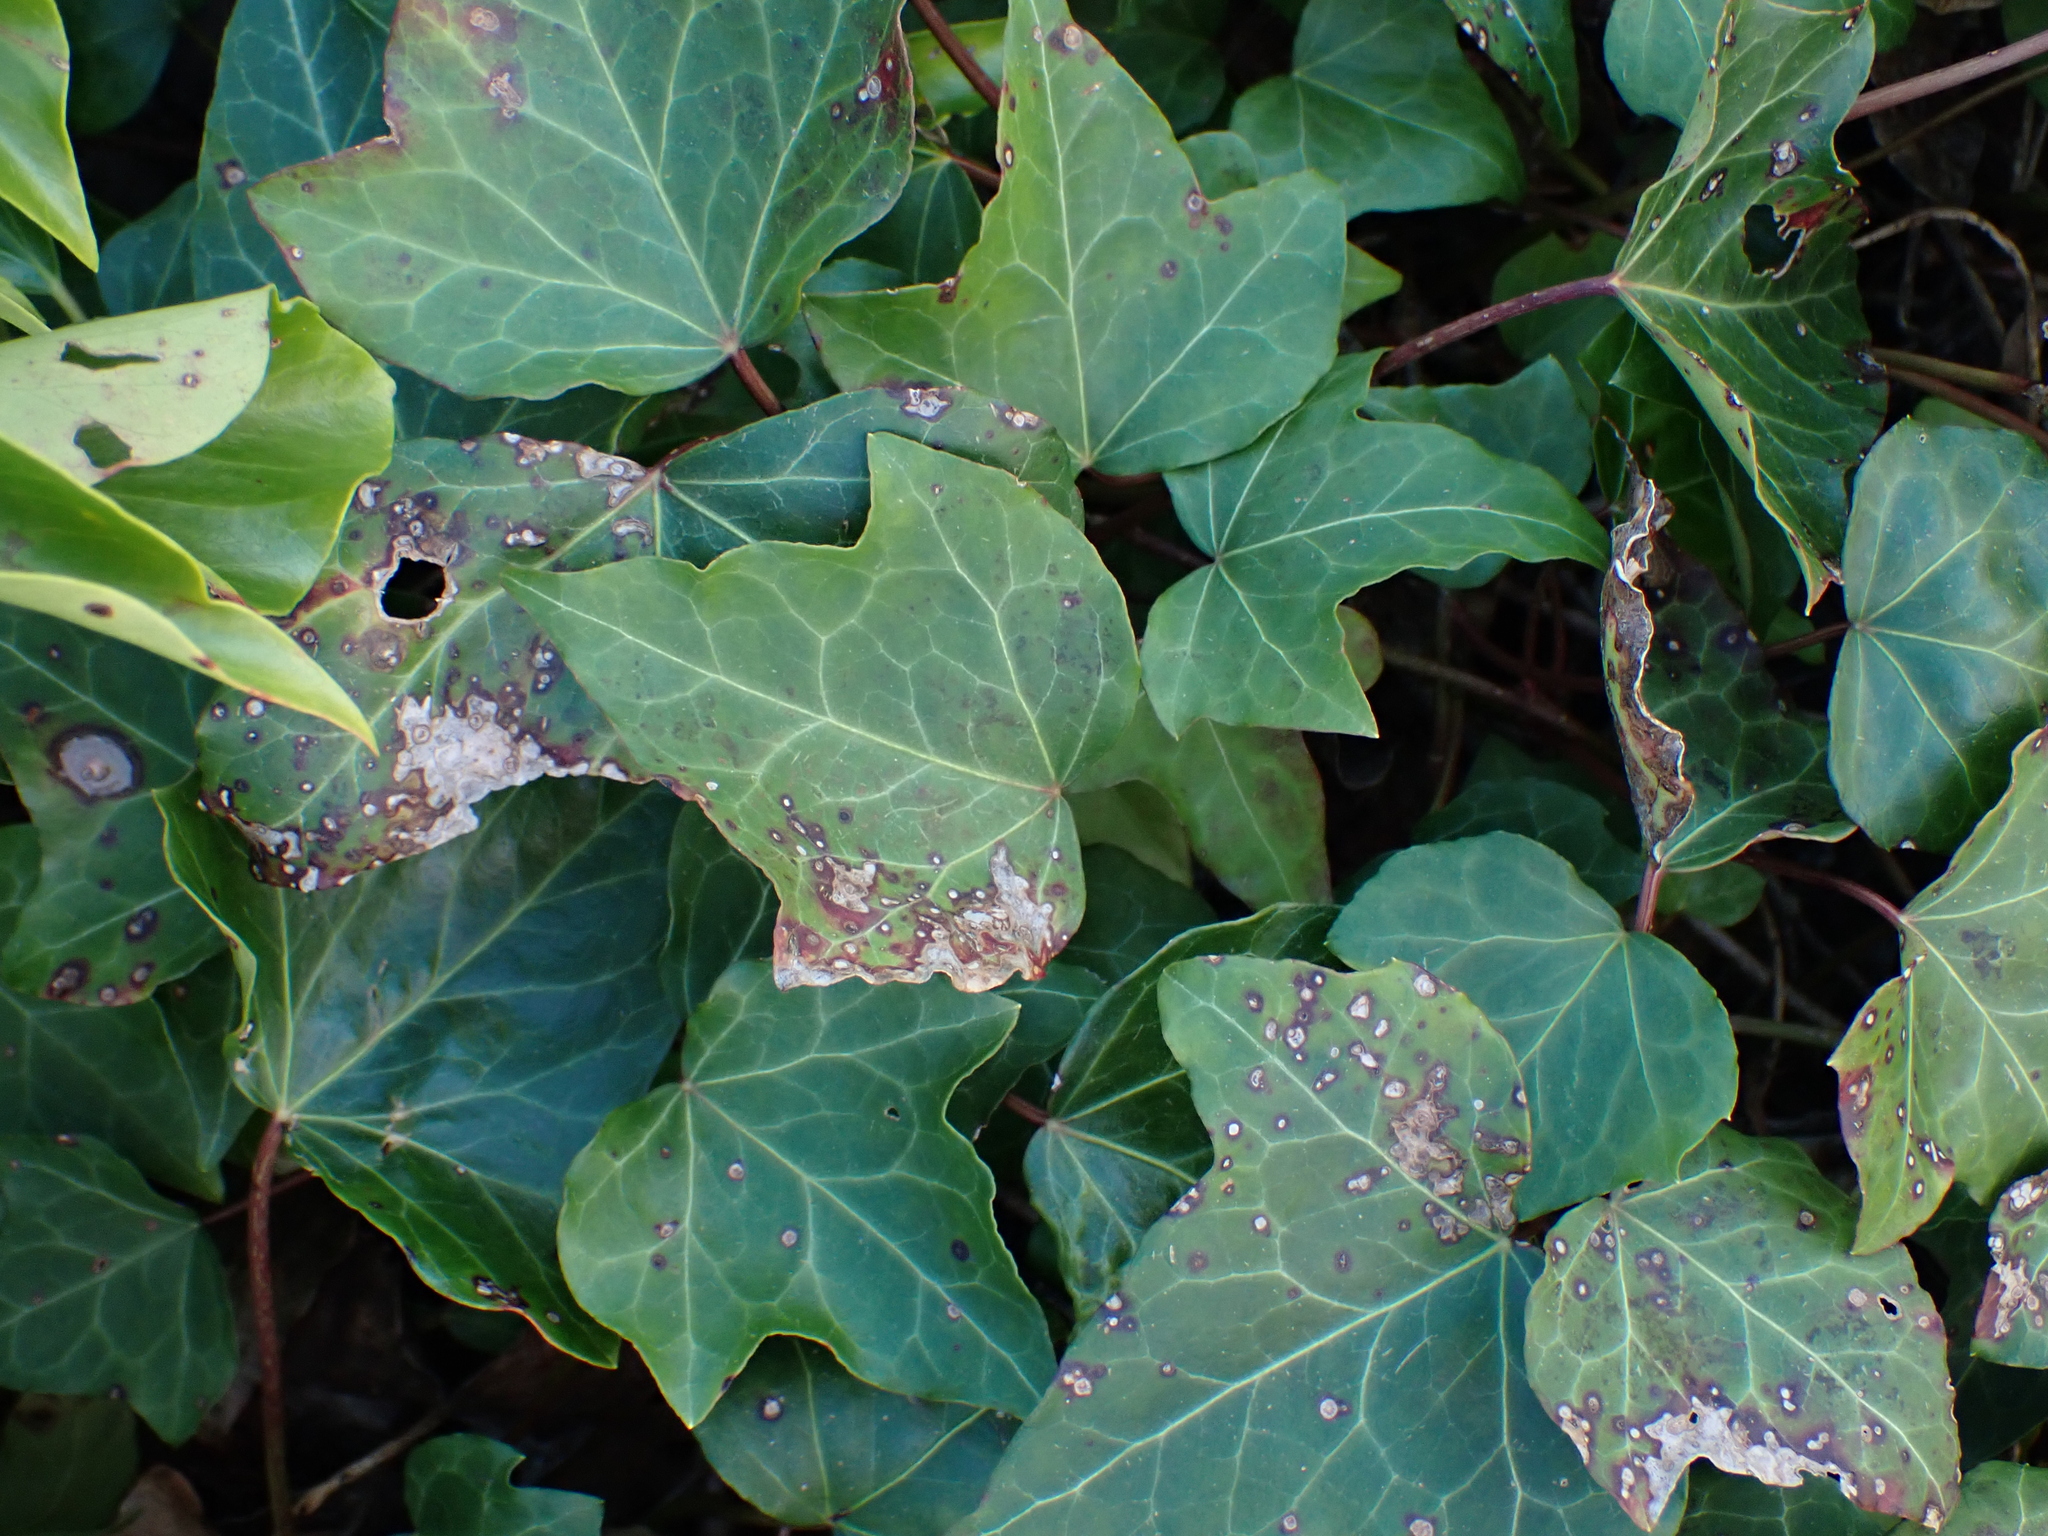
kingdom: Plantae
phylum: Tracheophyta
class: Magnoliopsida
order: Apiales
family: Araliaceae
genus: Hedera
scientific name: Hedera helix
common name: Ivy
